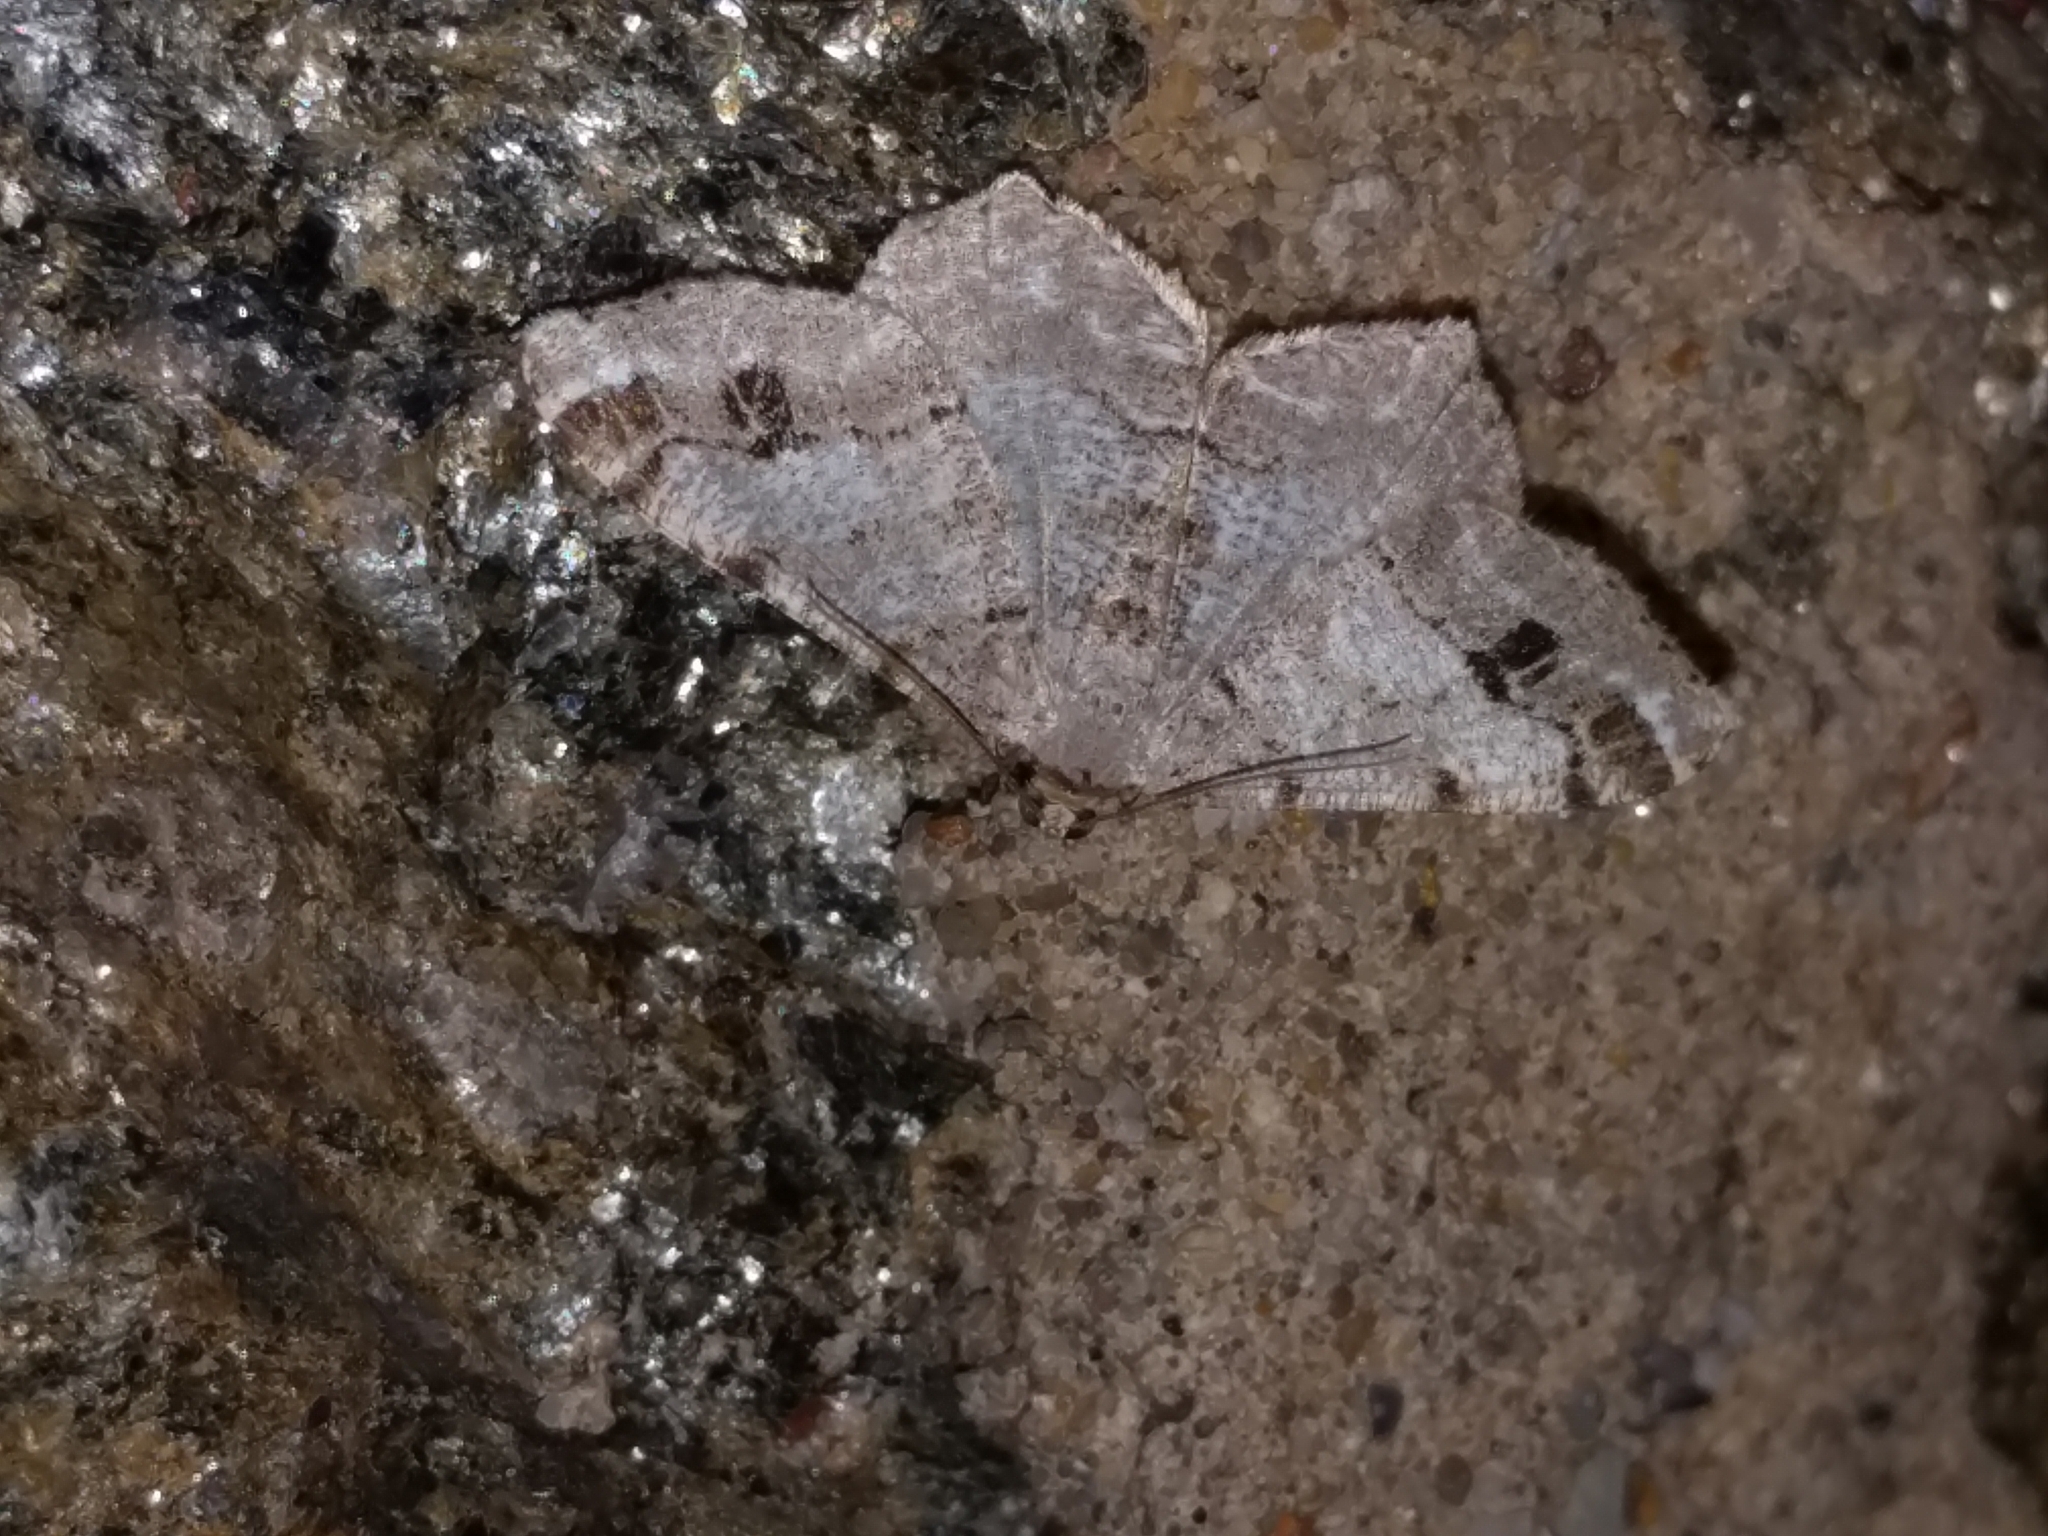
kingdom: Animalia
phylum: Arthropoda
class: Insecta
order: Lepidoptera
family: Geometridae
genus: Macaria
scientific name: Macaria pinistrobata
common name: White pine angle
